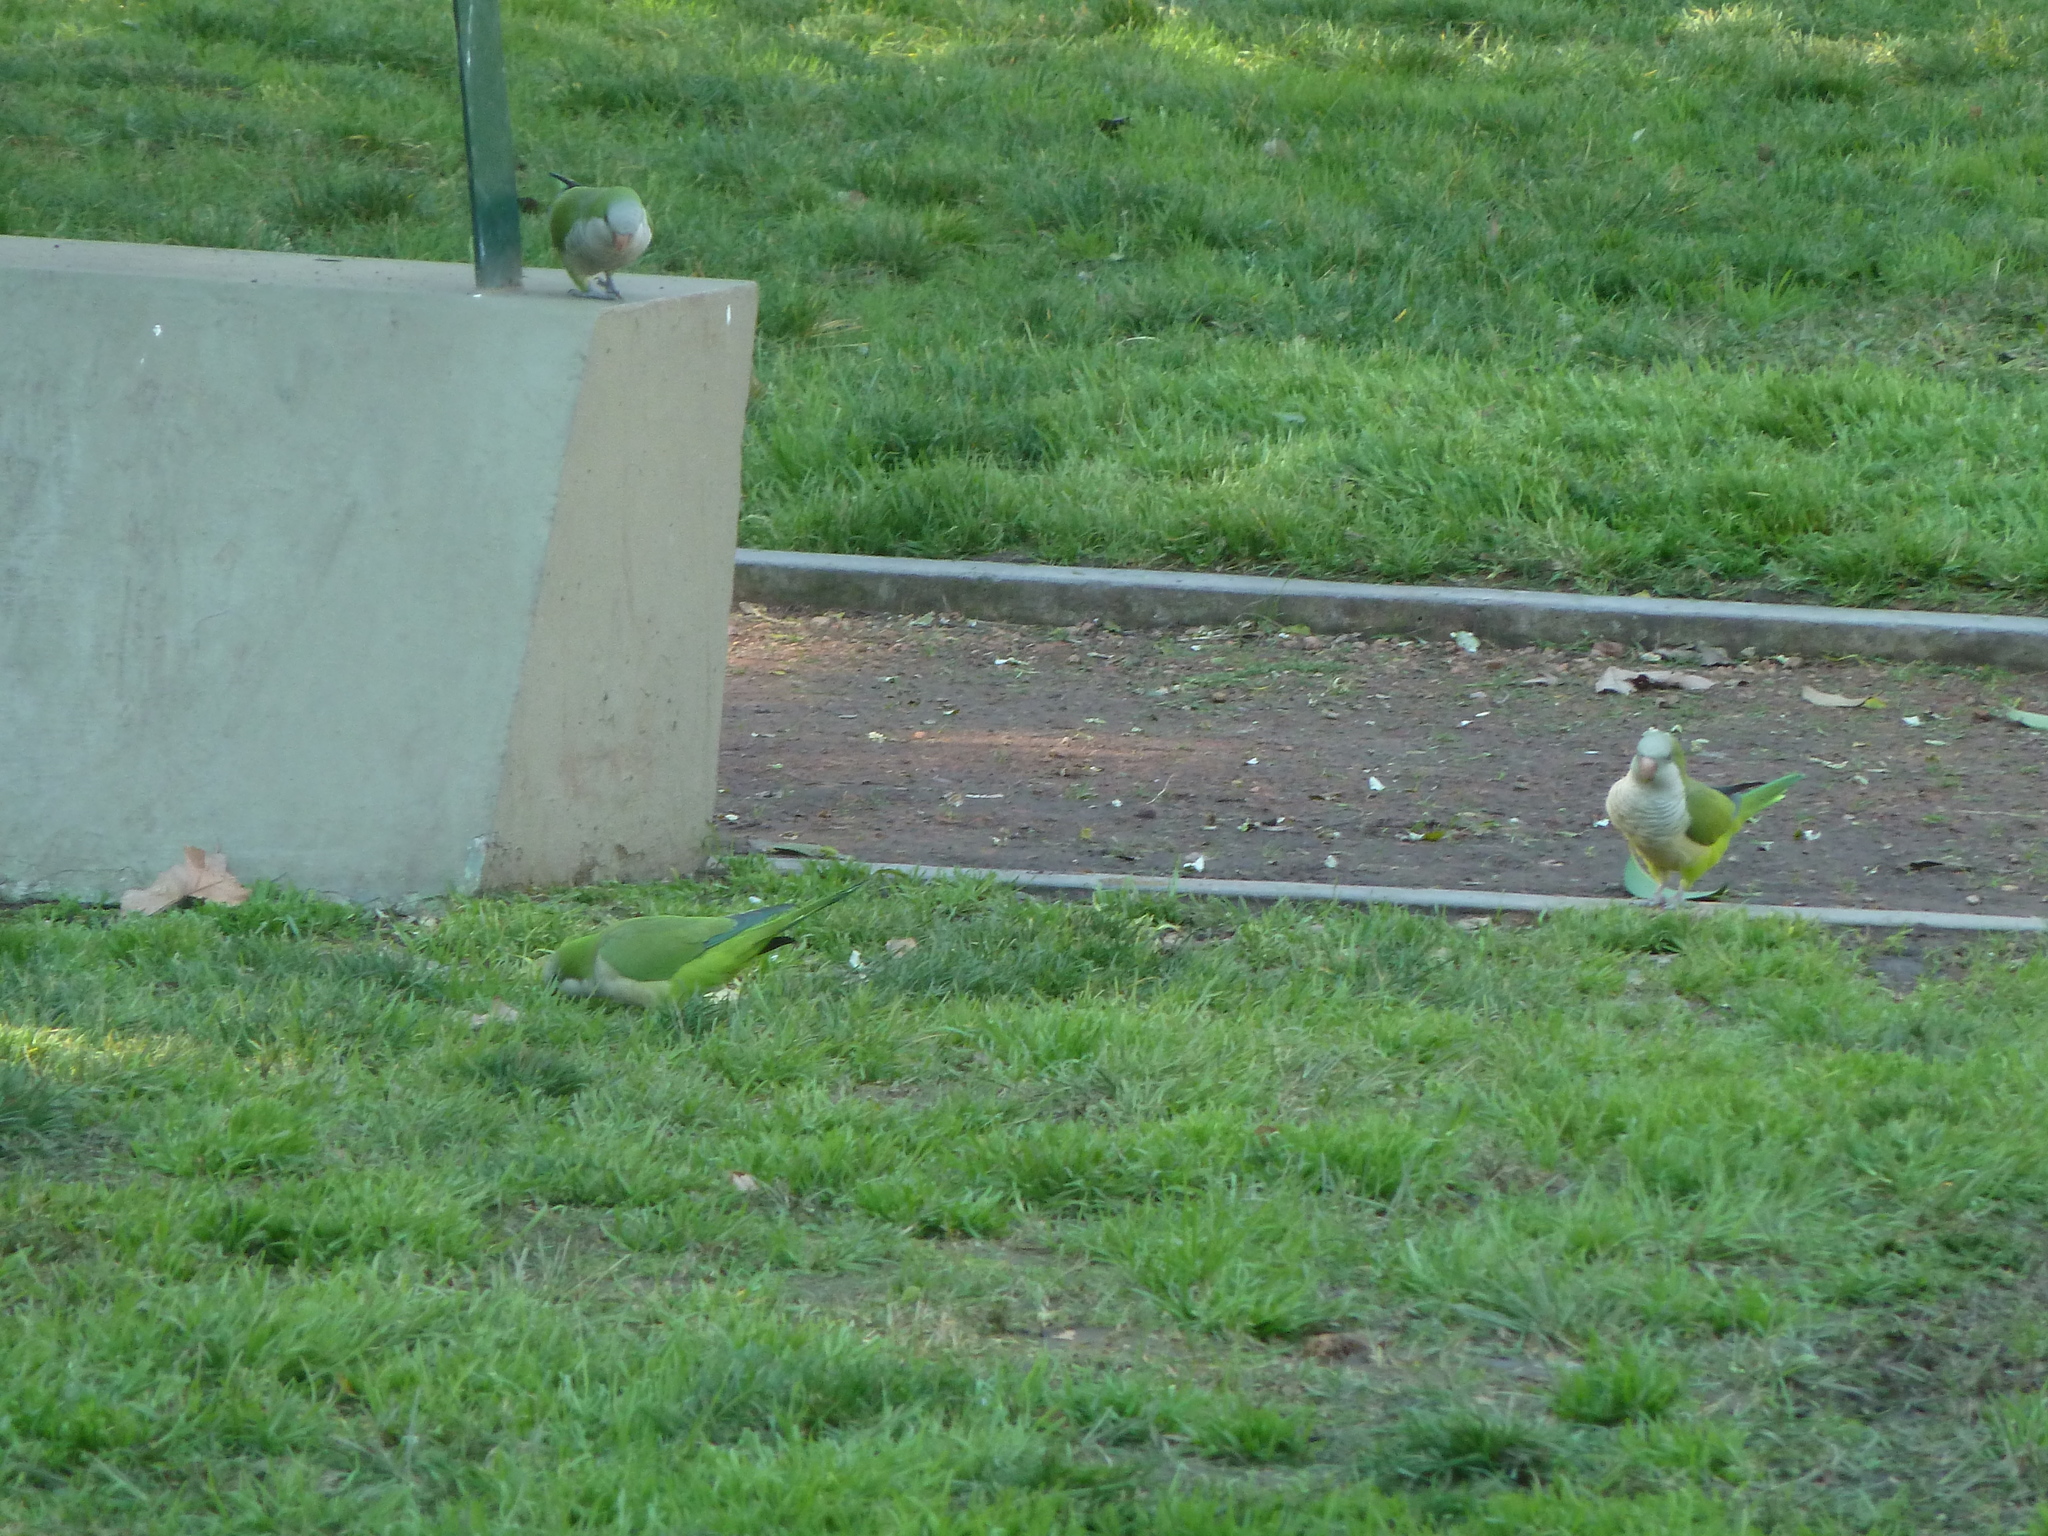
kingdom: Animalia
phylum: Chordata
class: Aves
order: Psittaciformes
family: Psittacidae
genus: Myiopsitta
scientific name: Myiopsitta monachus
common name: Monk parakeet
